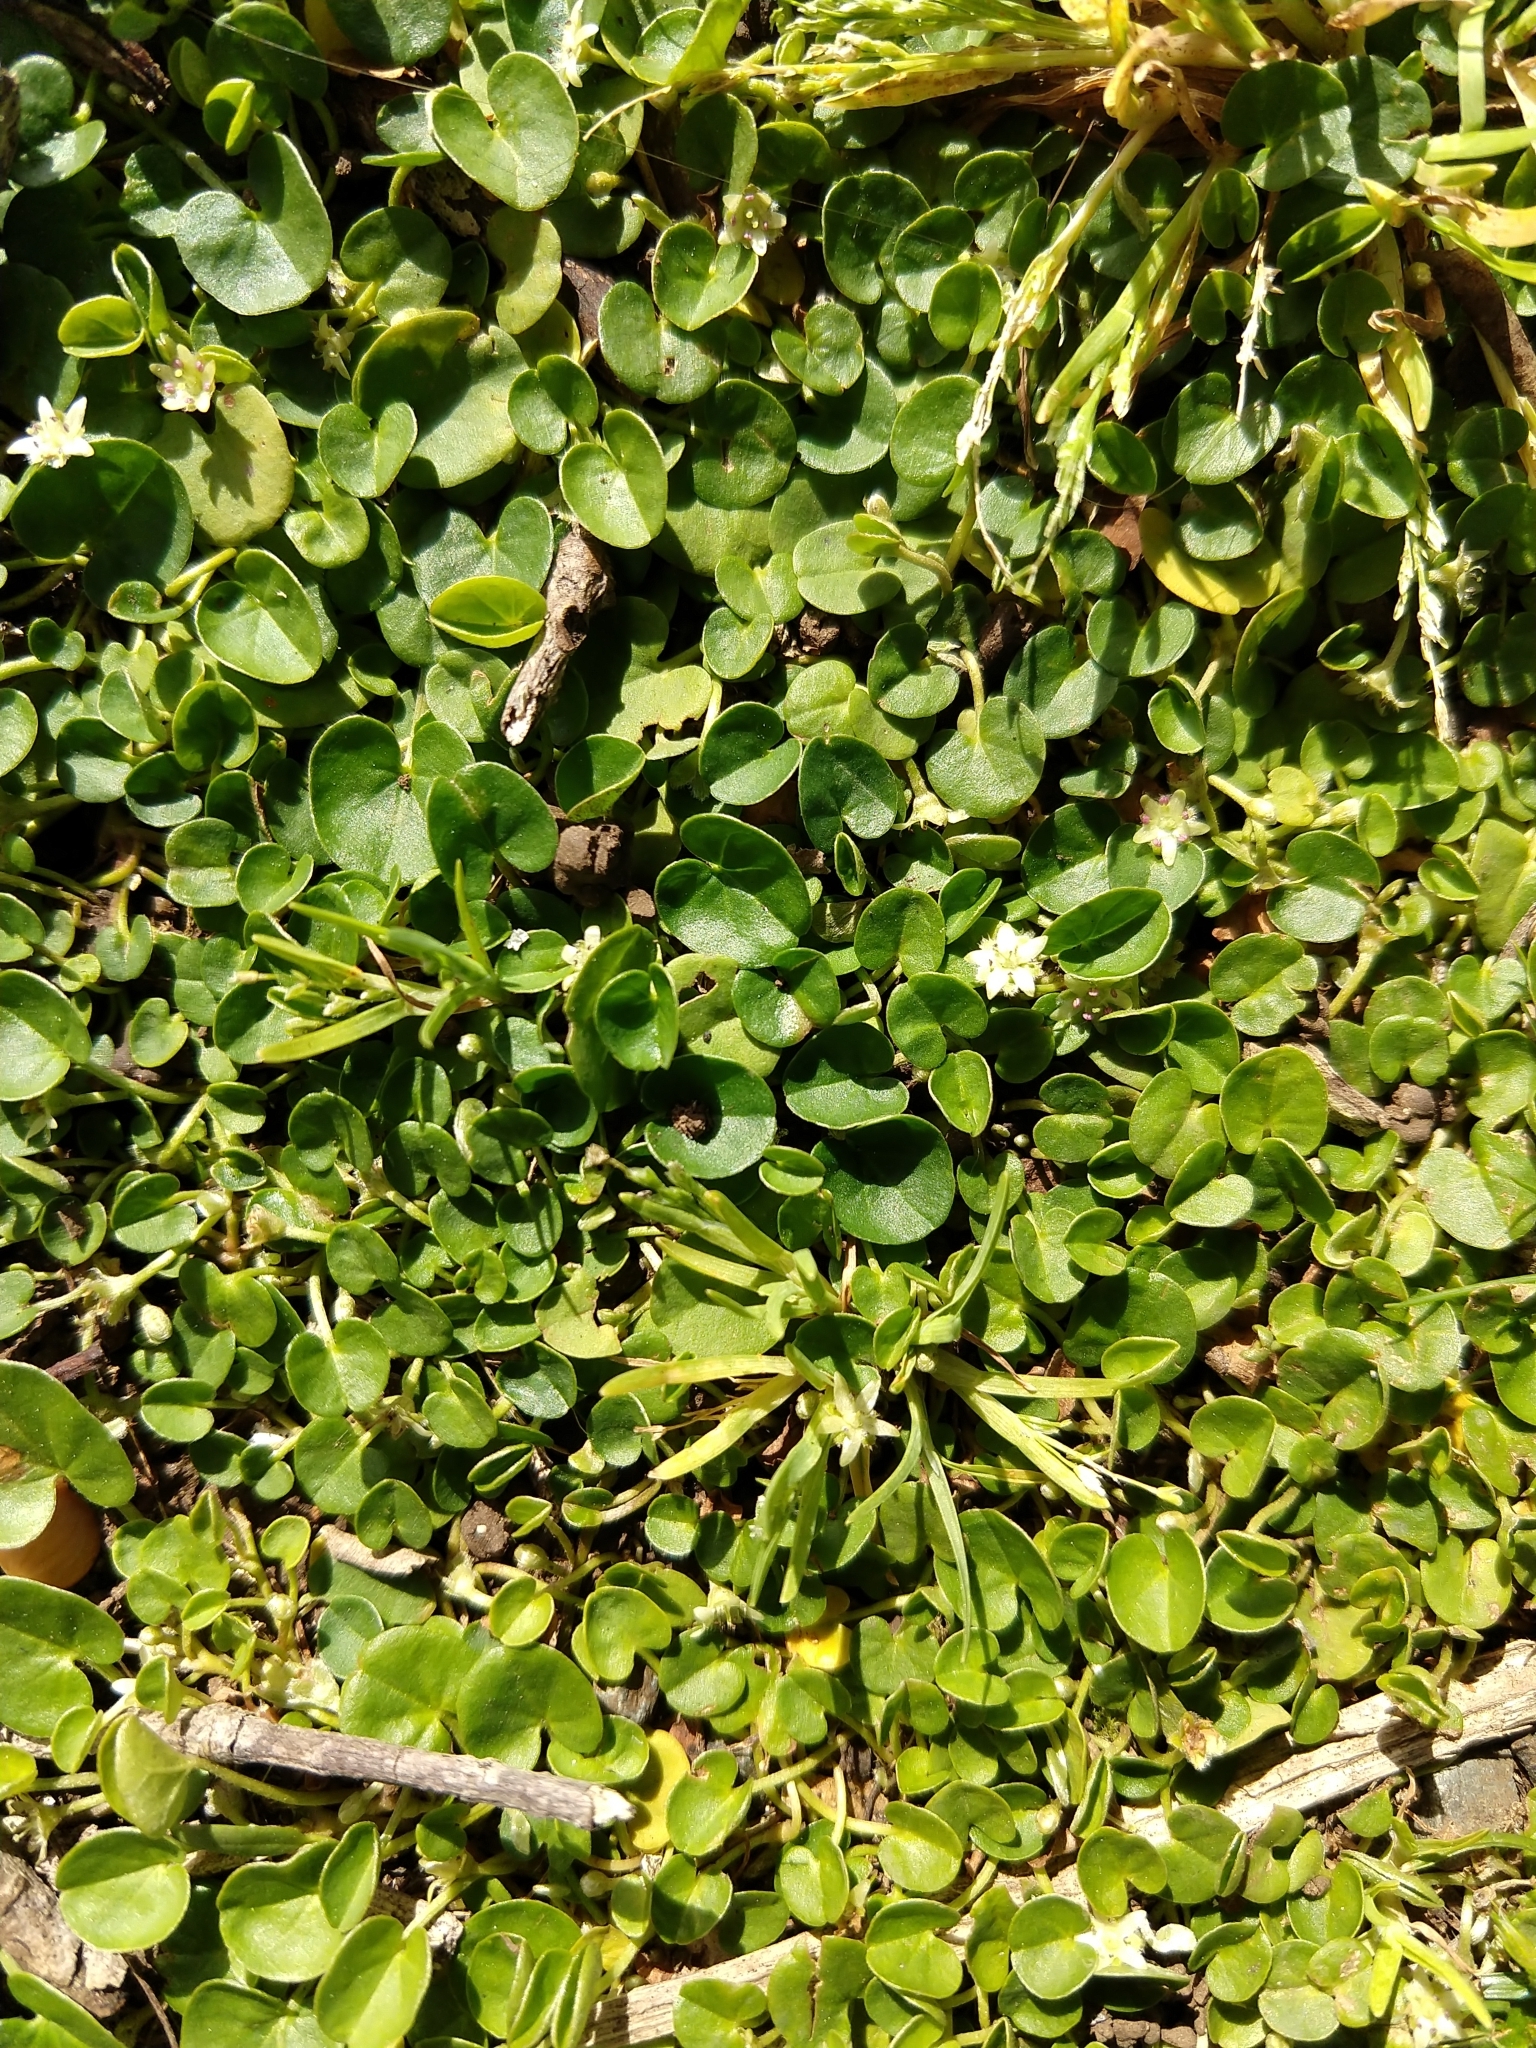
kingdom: Plantae
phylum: Tracheophyta
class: Magnoliopsida
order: Solanales
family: Convolvulaceae
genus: Dichondra
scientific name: Dichondra micrantha
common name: Kidneyweed
